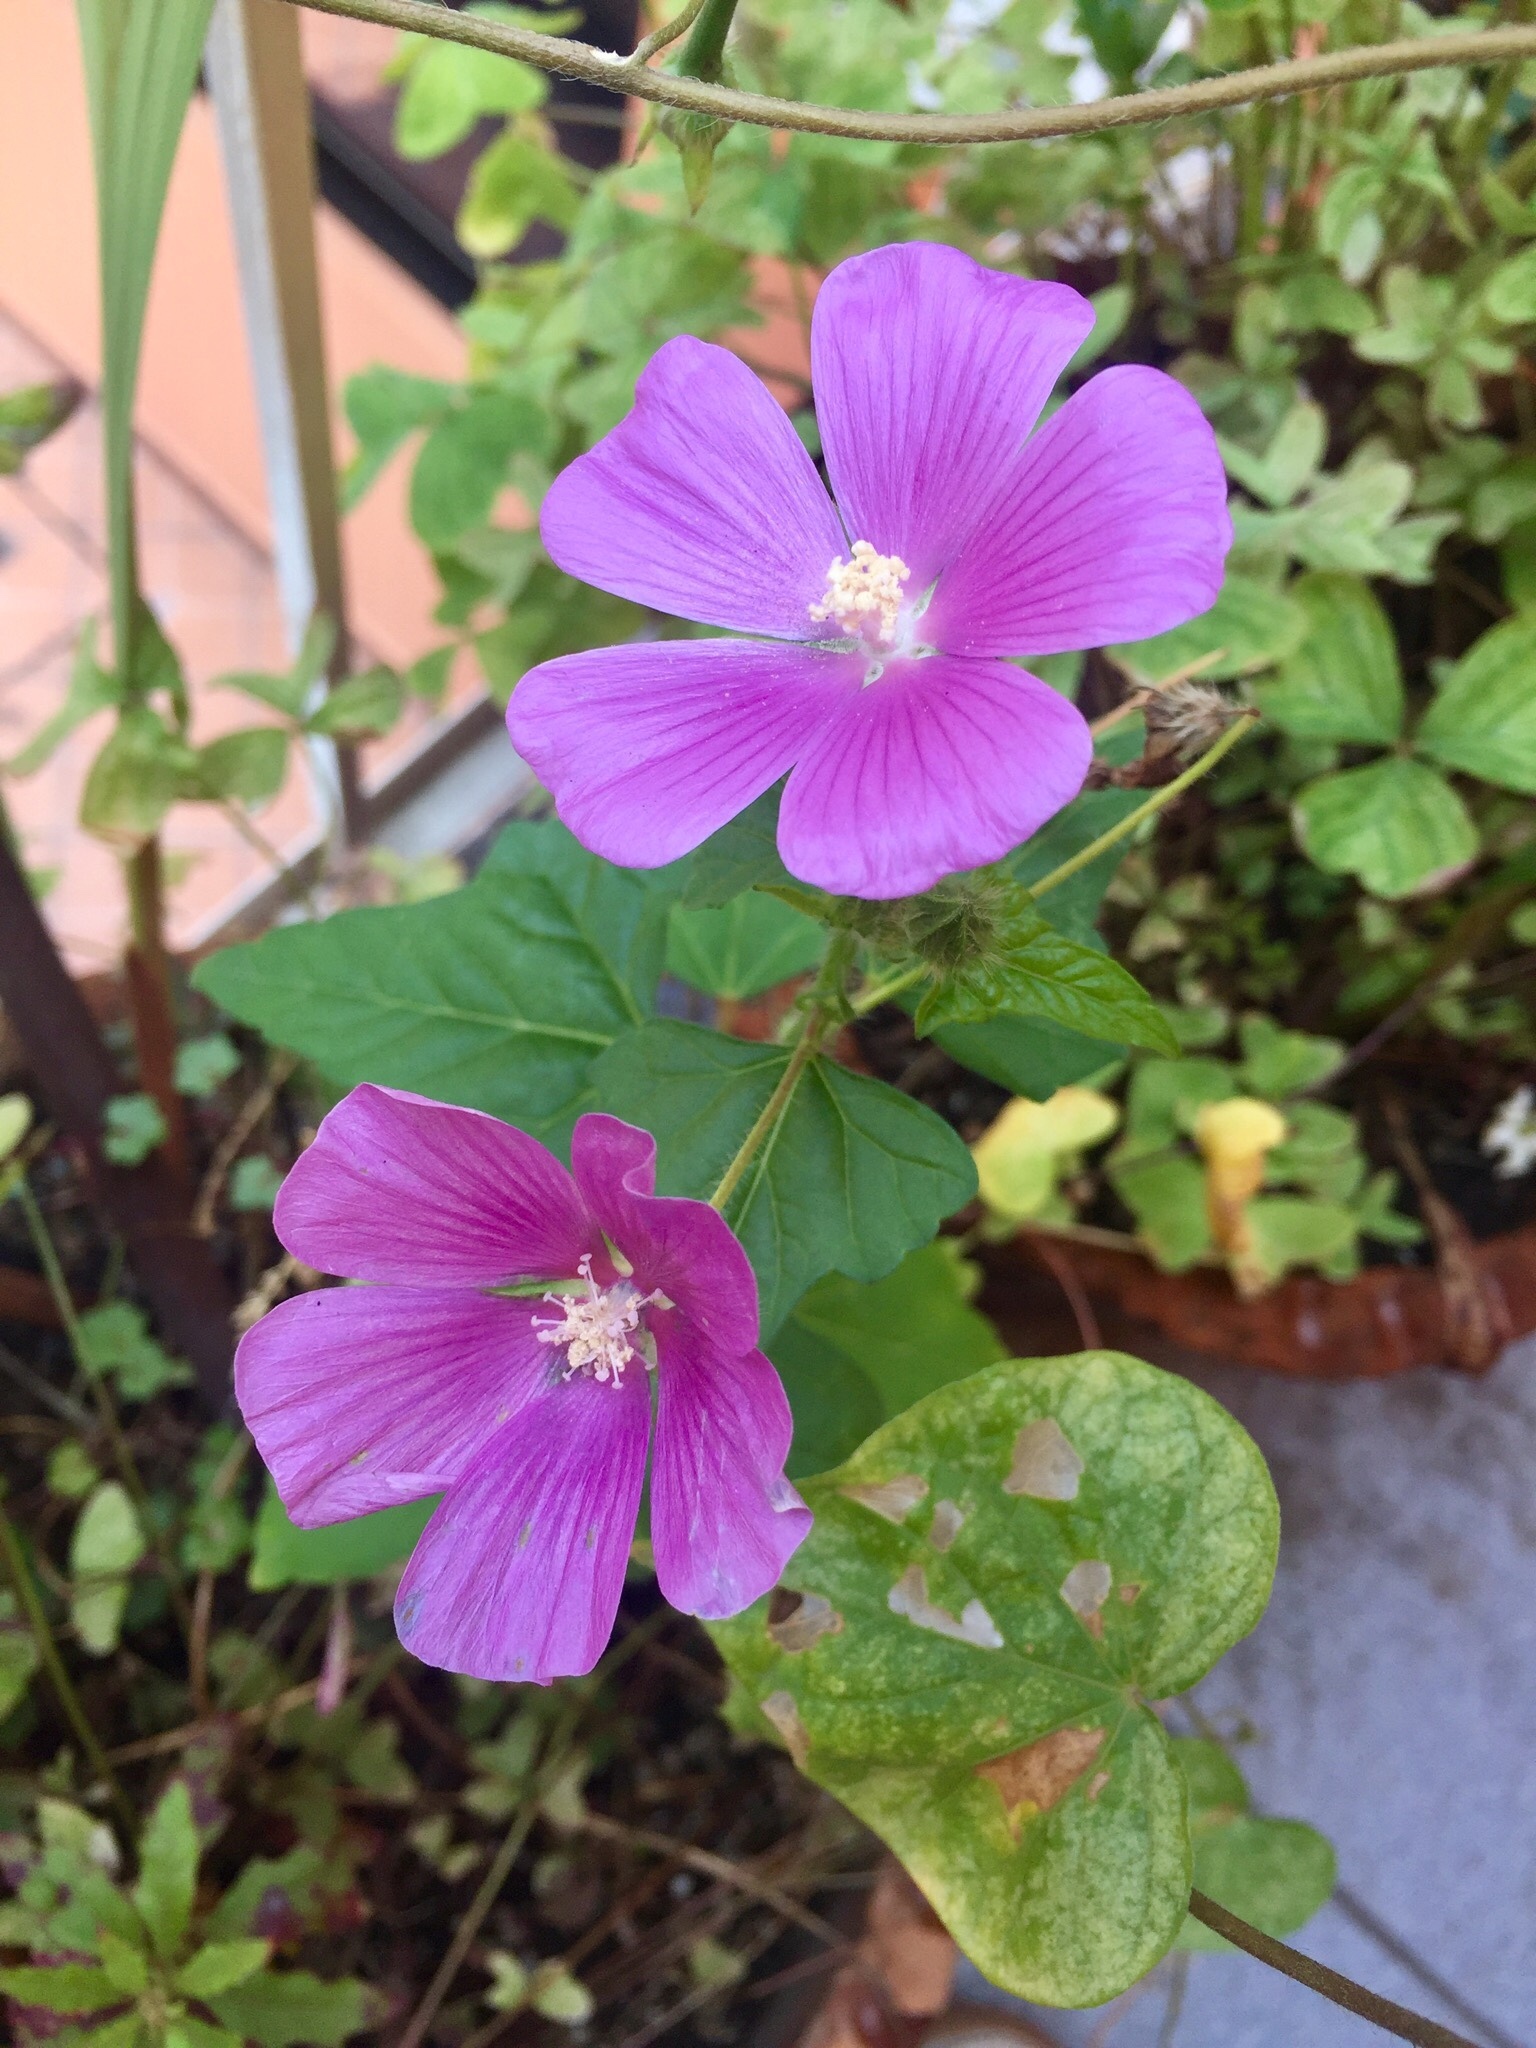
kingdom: Plantae
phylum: Tracheophyta
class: Magnoliopsida
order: Malvales
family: Malvaceae
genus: Anoda
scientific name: Anoda cristata
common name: Spurred anoda
